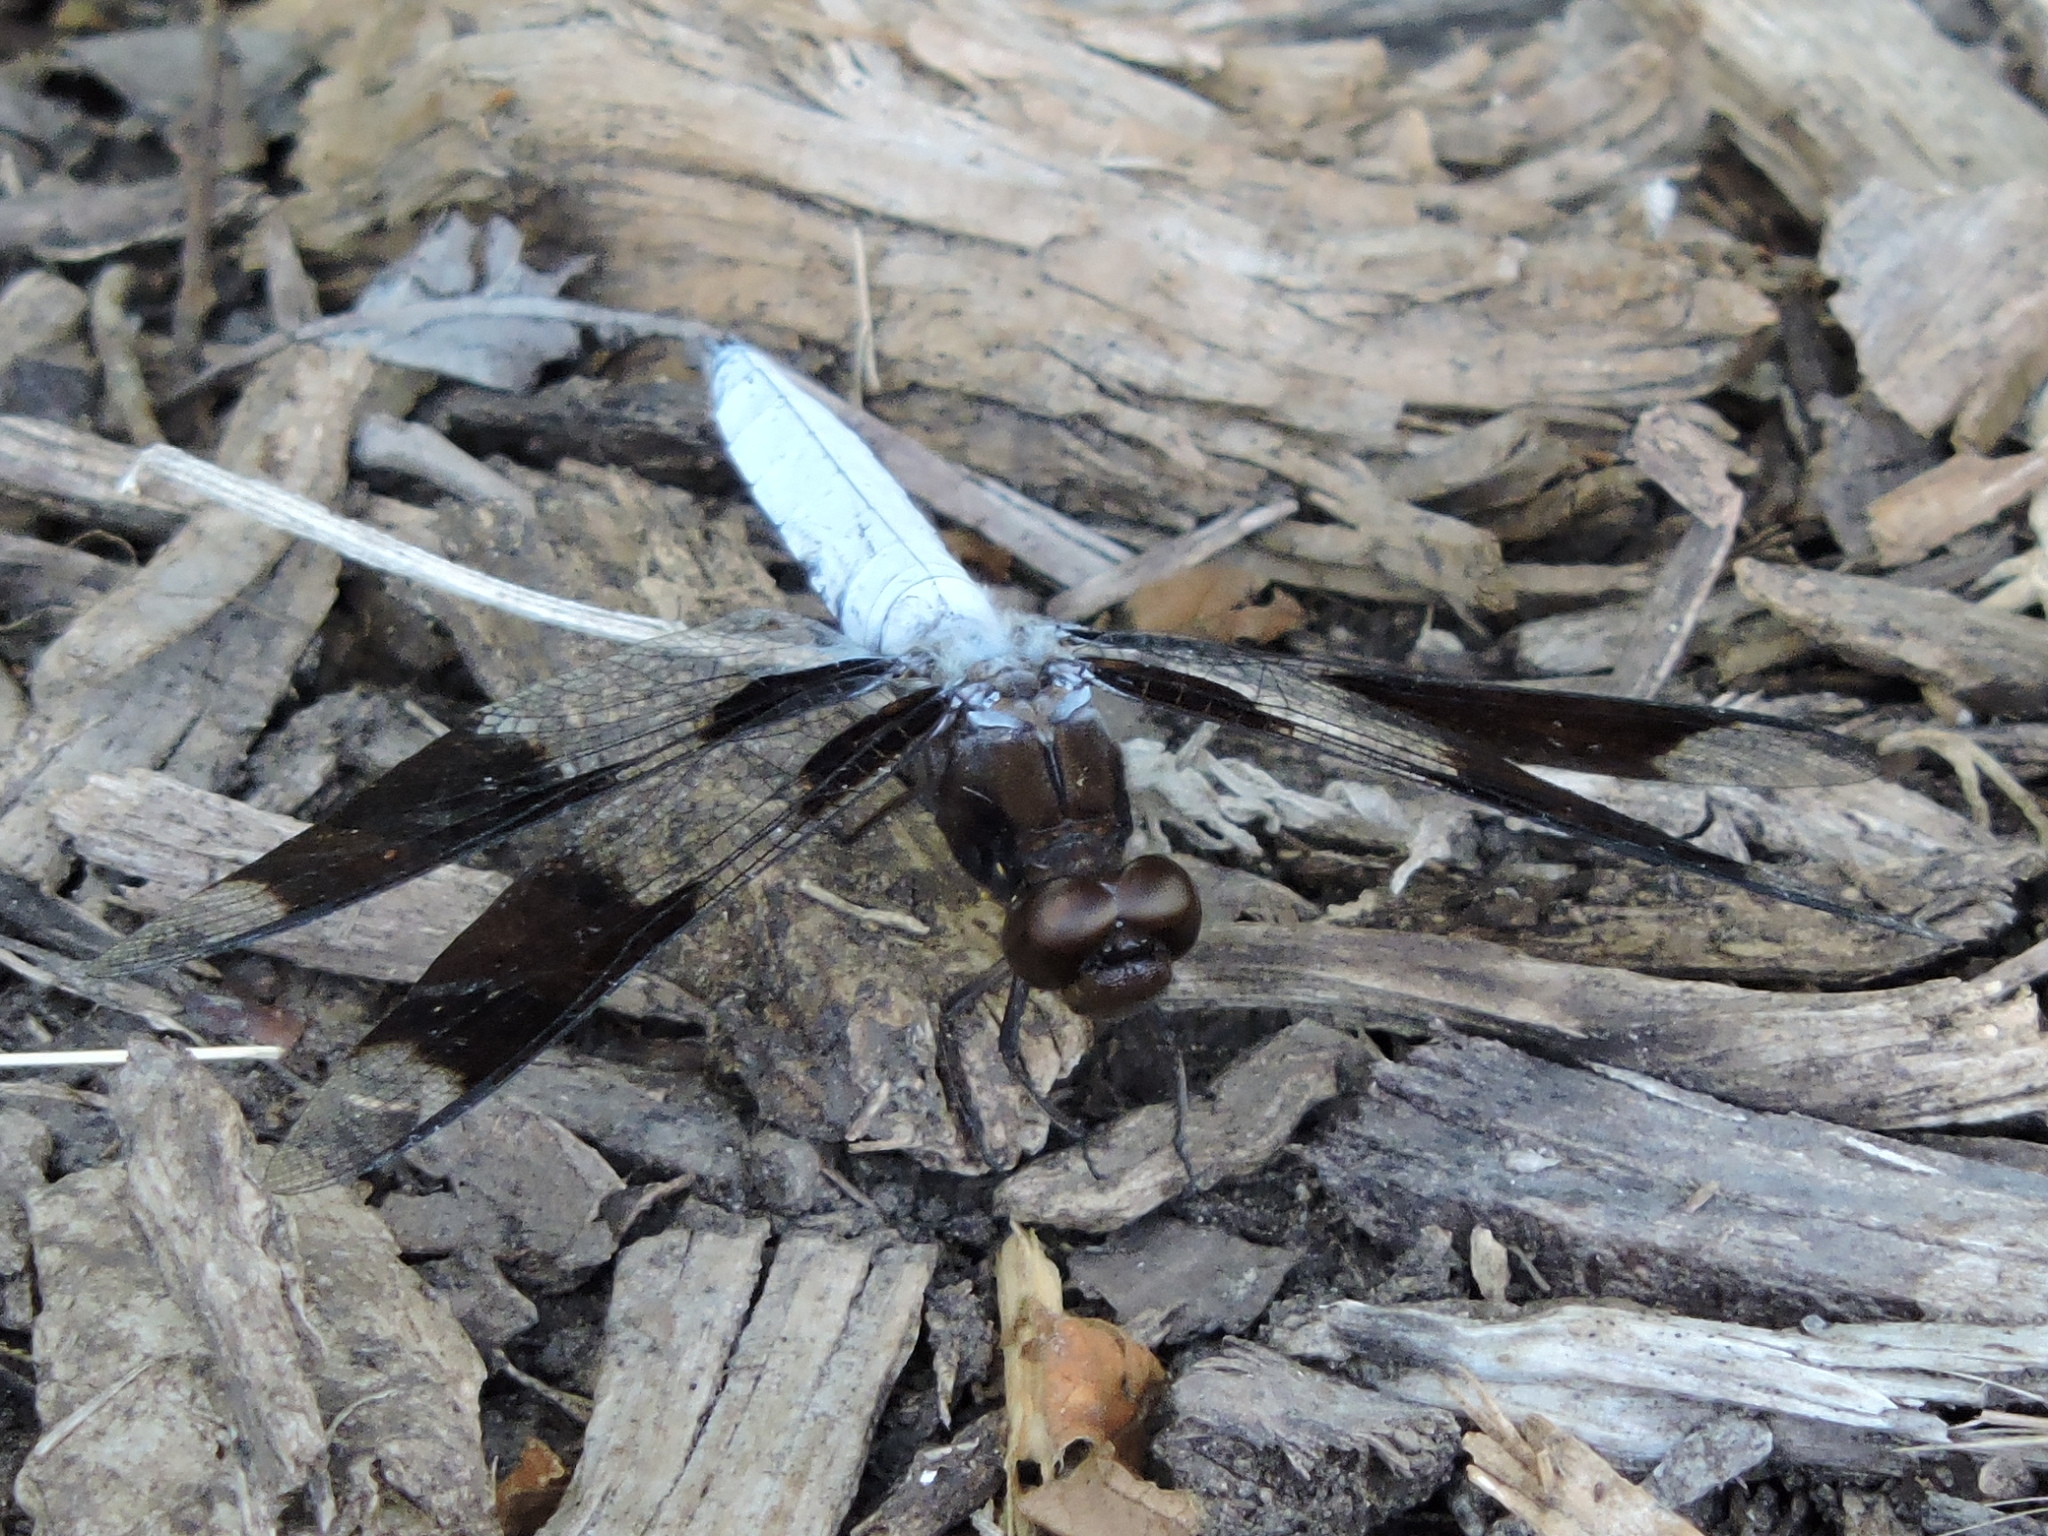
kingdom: Animalia
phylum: Arthropoda
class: Insecta
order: Odonata
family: Libellulidae
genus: Plathemis
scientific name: Plathemis lydia
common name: Common whitetail
